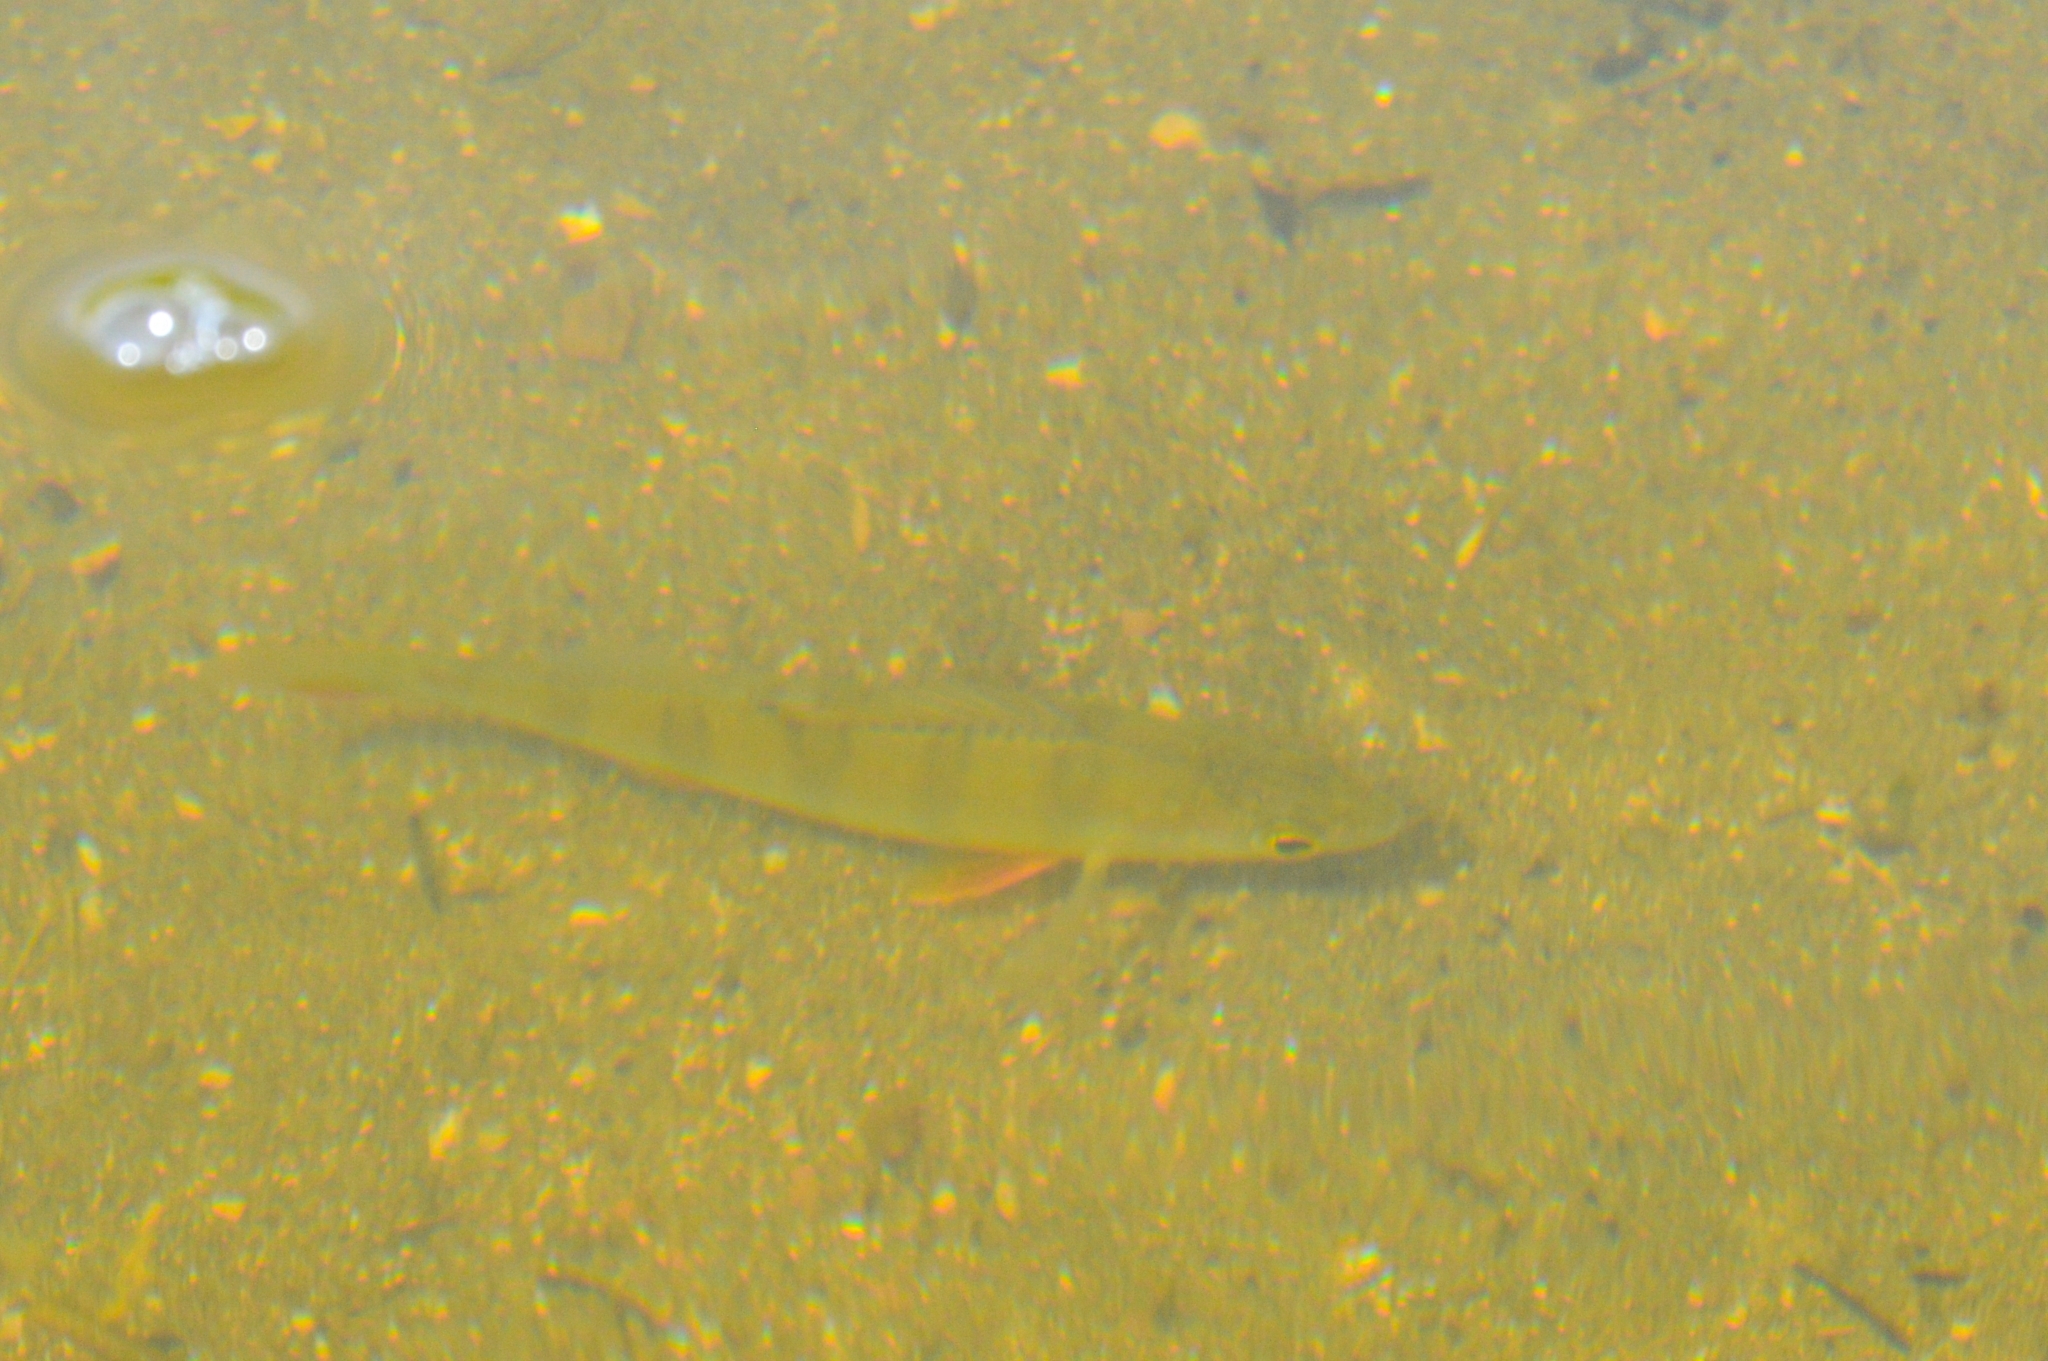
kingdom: Animalia
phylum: Chordata
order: Perciformes
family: Percidae
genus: Perca
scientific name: Perca fluviatilis
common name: Perch
